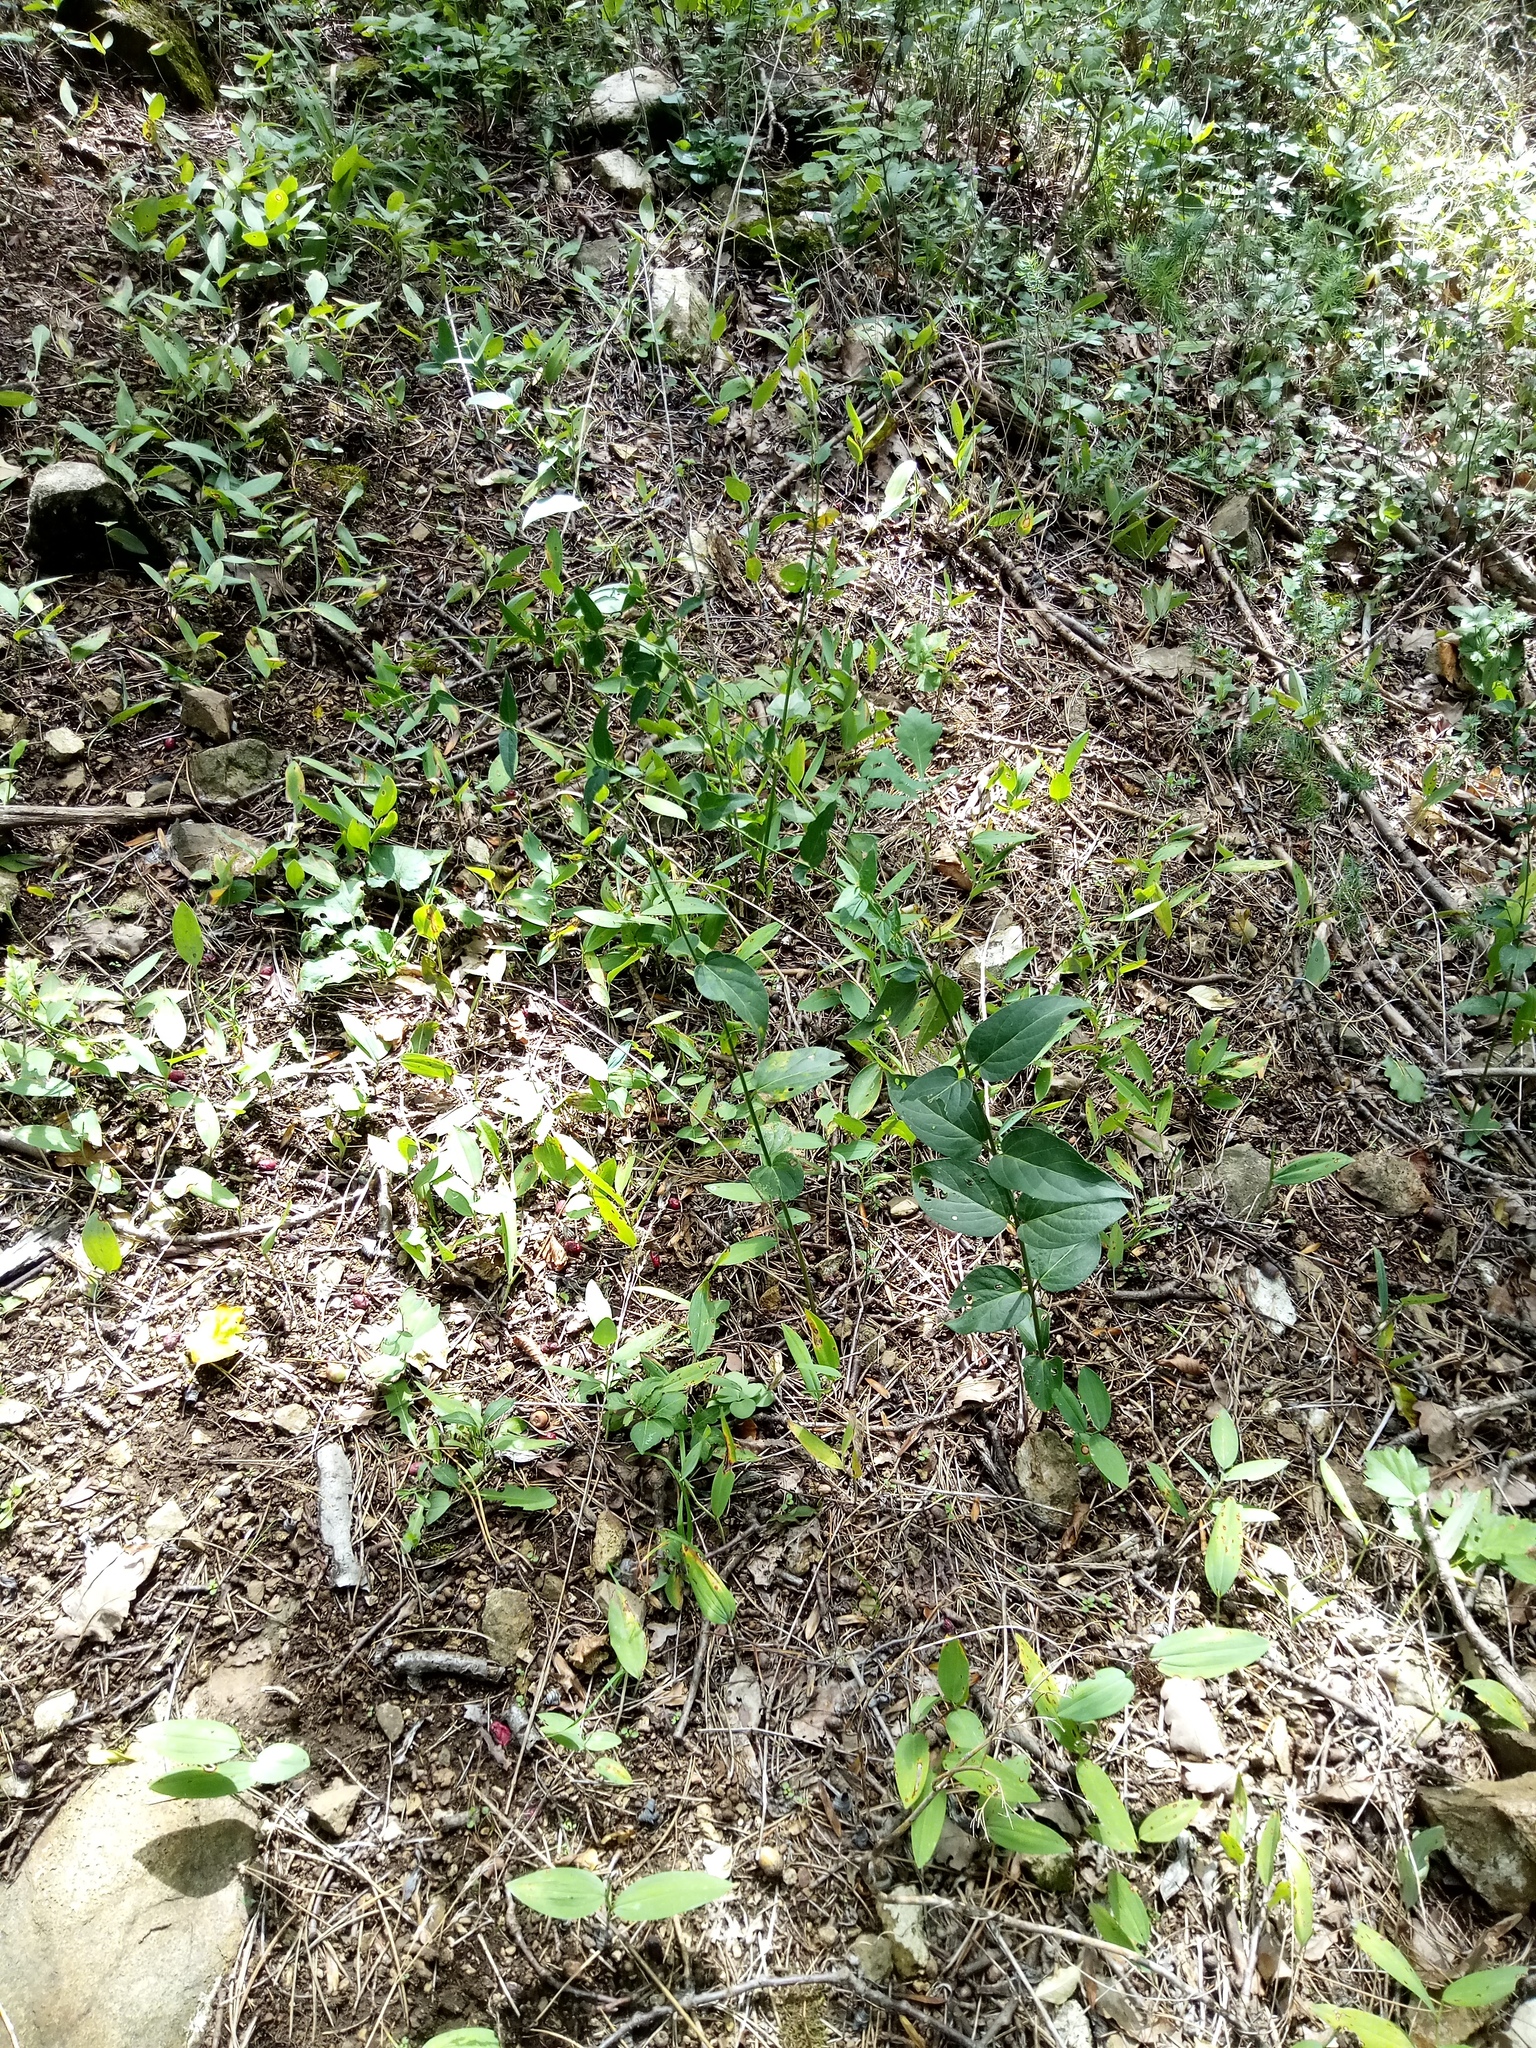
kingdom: Plantae
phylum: Tracheophyta
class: Magnoliopsida
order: Gentianales
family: Apocynaceae
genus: Vincetoxicum
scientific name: Vincetoxicum hirundinaria
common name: White swallowwort
